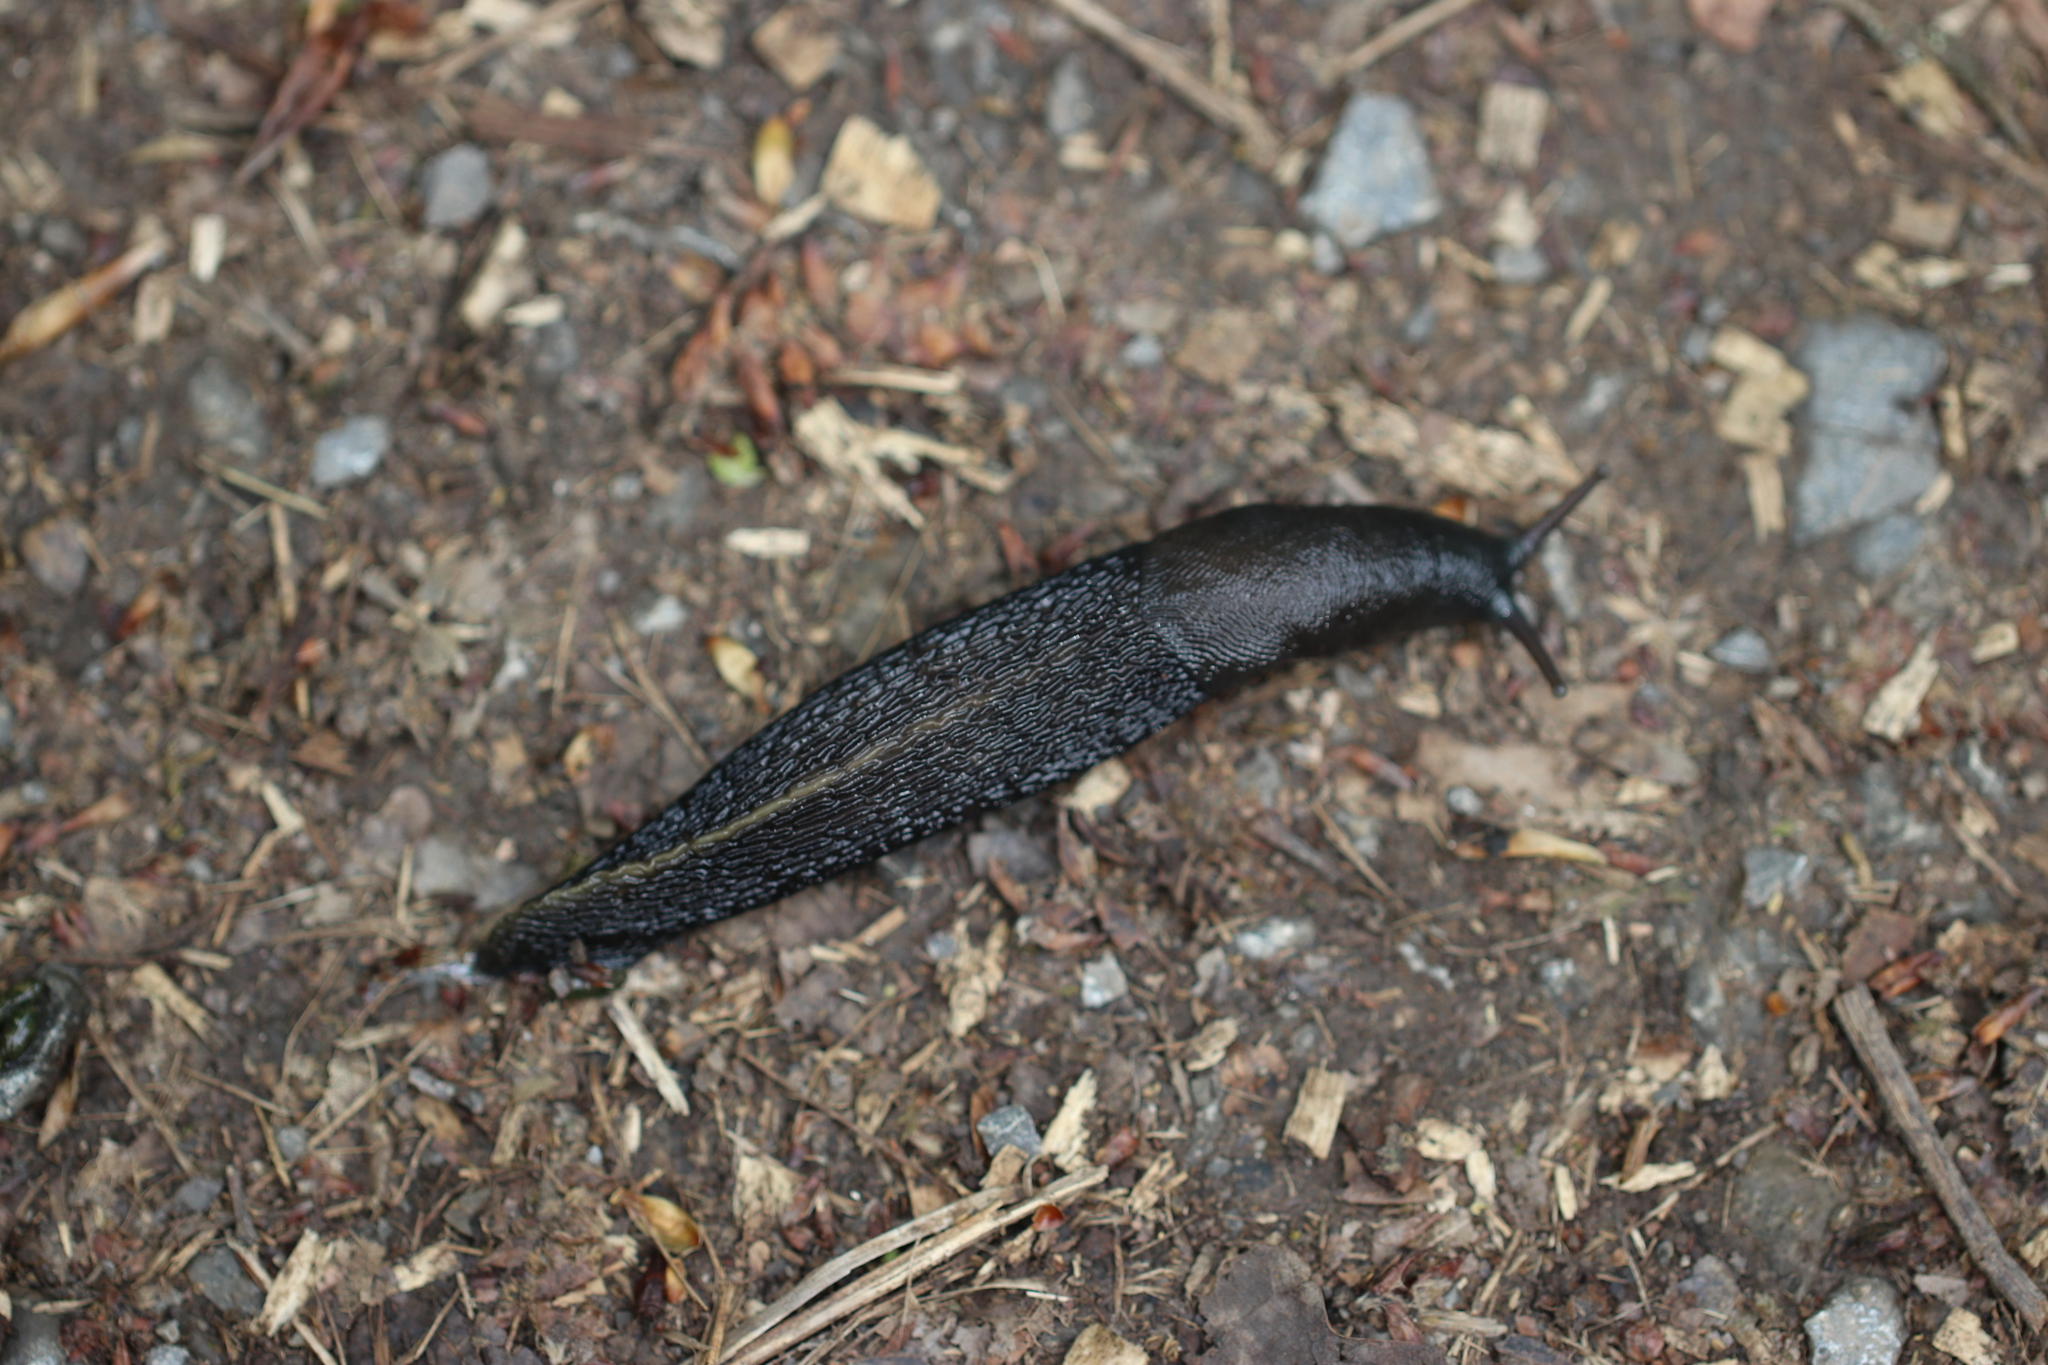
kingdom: Animalia
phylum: Mollusca
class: Gastropoda
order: Stylommatophora
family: Limacidae
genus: Limax
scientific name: Limax cinereoniger
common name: Ash-black slug
